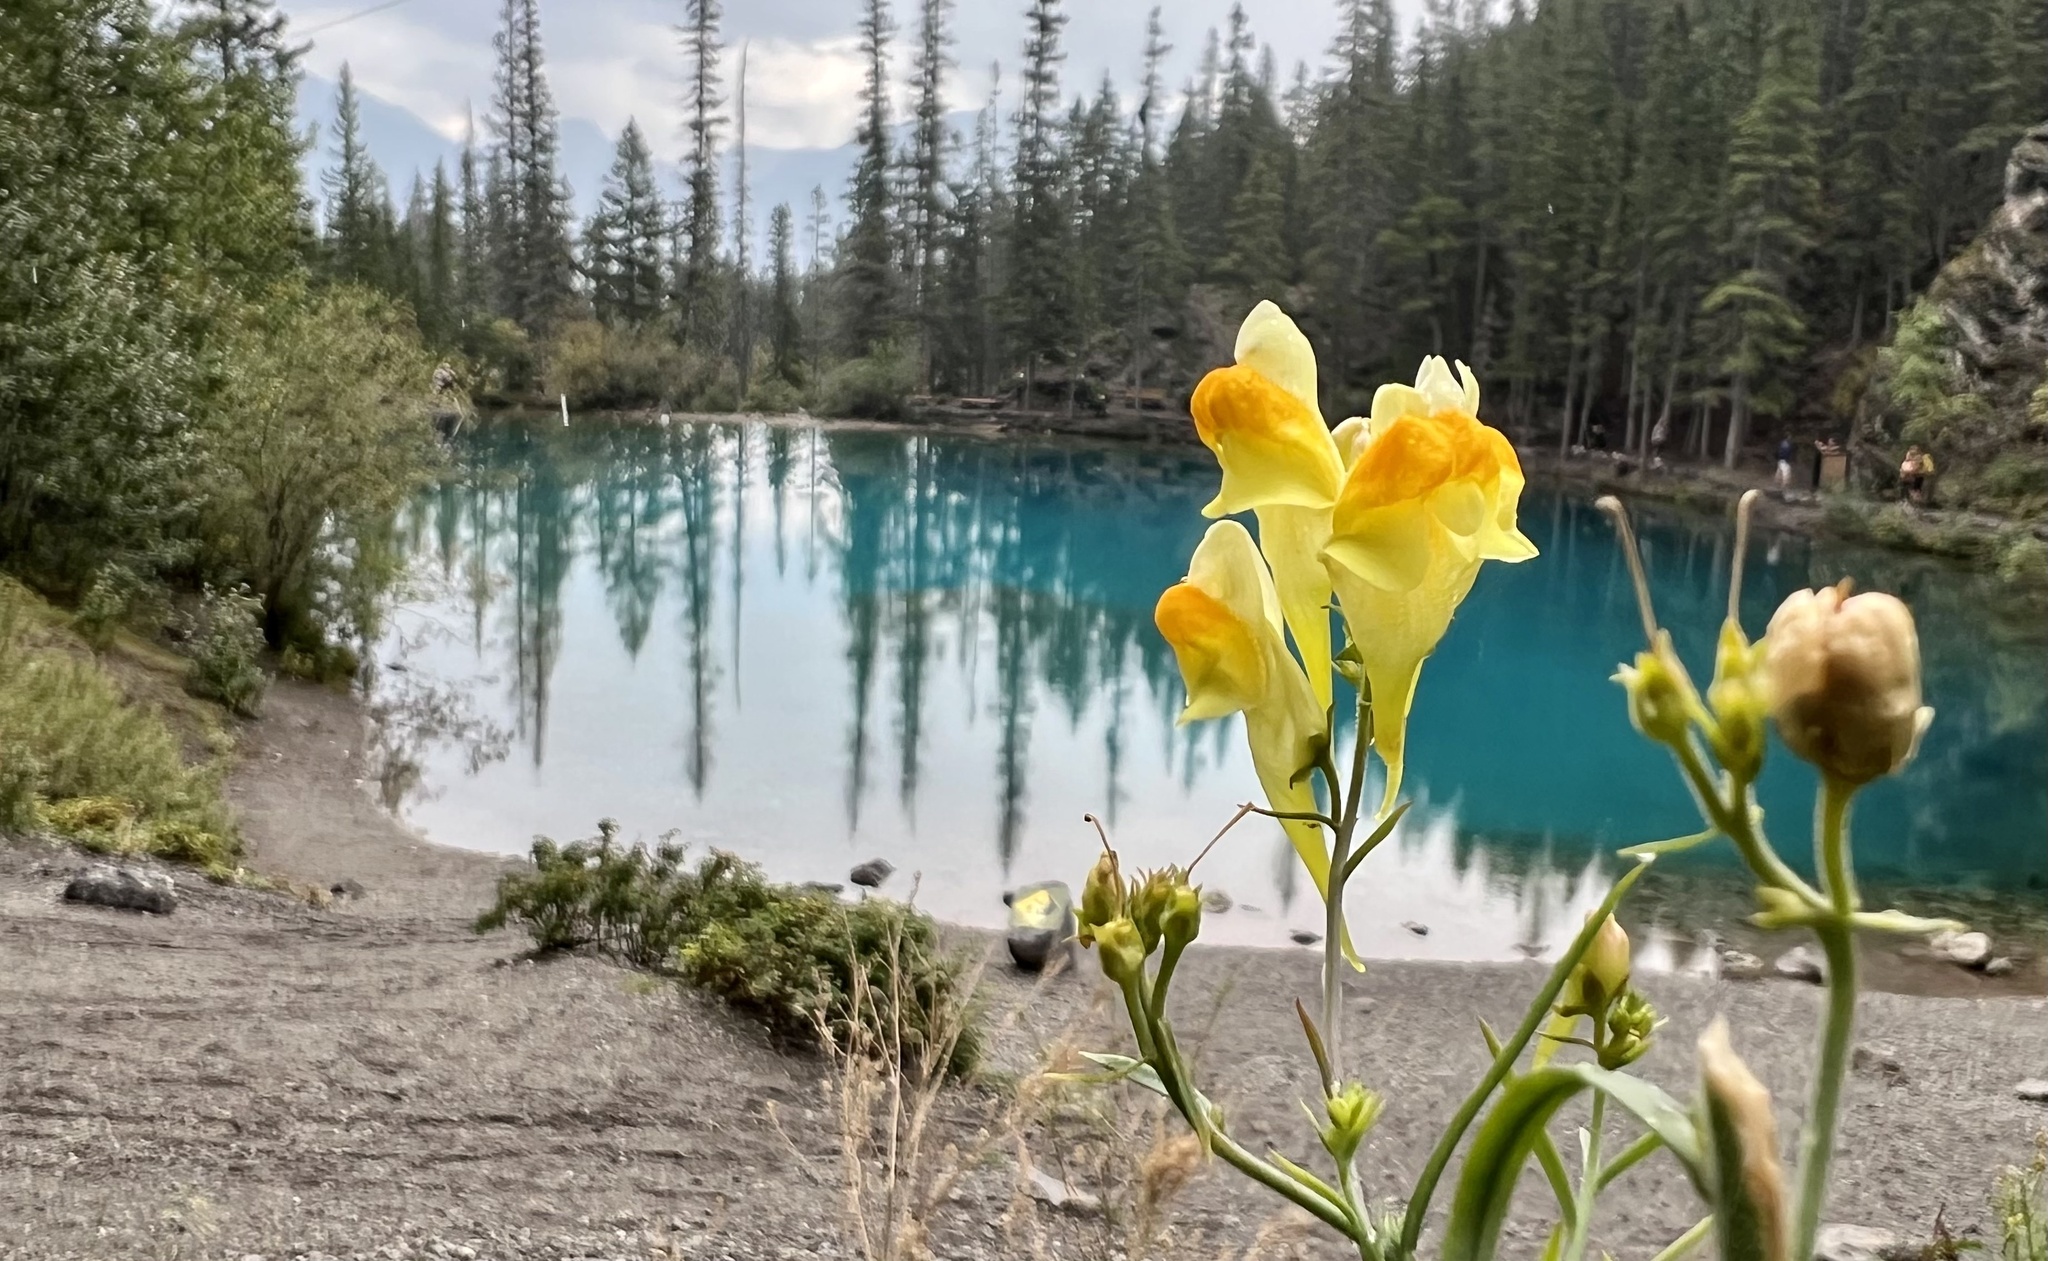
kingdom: Plantae
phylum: Tracheophyta
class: Magnoliopsida
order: Lamiales
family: Plantaginaceae
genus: Linaria
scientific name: Linaria vulgaris
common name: Butter and eggs
